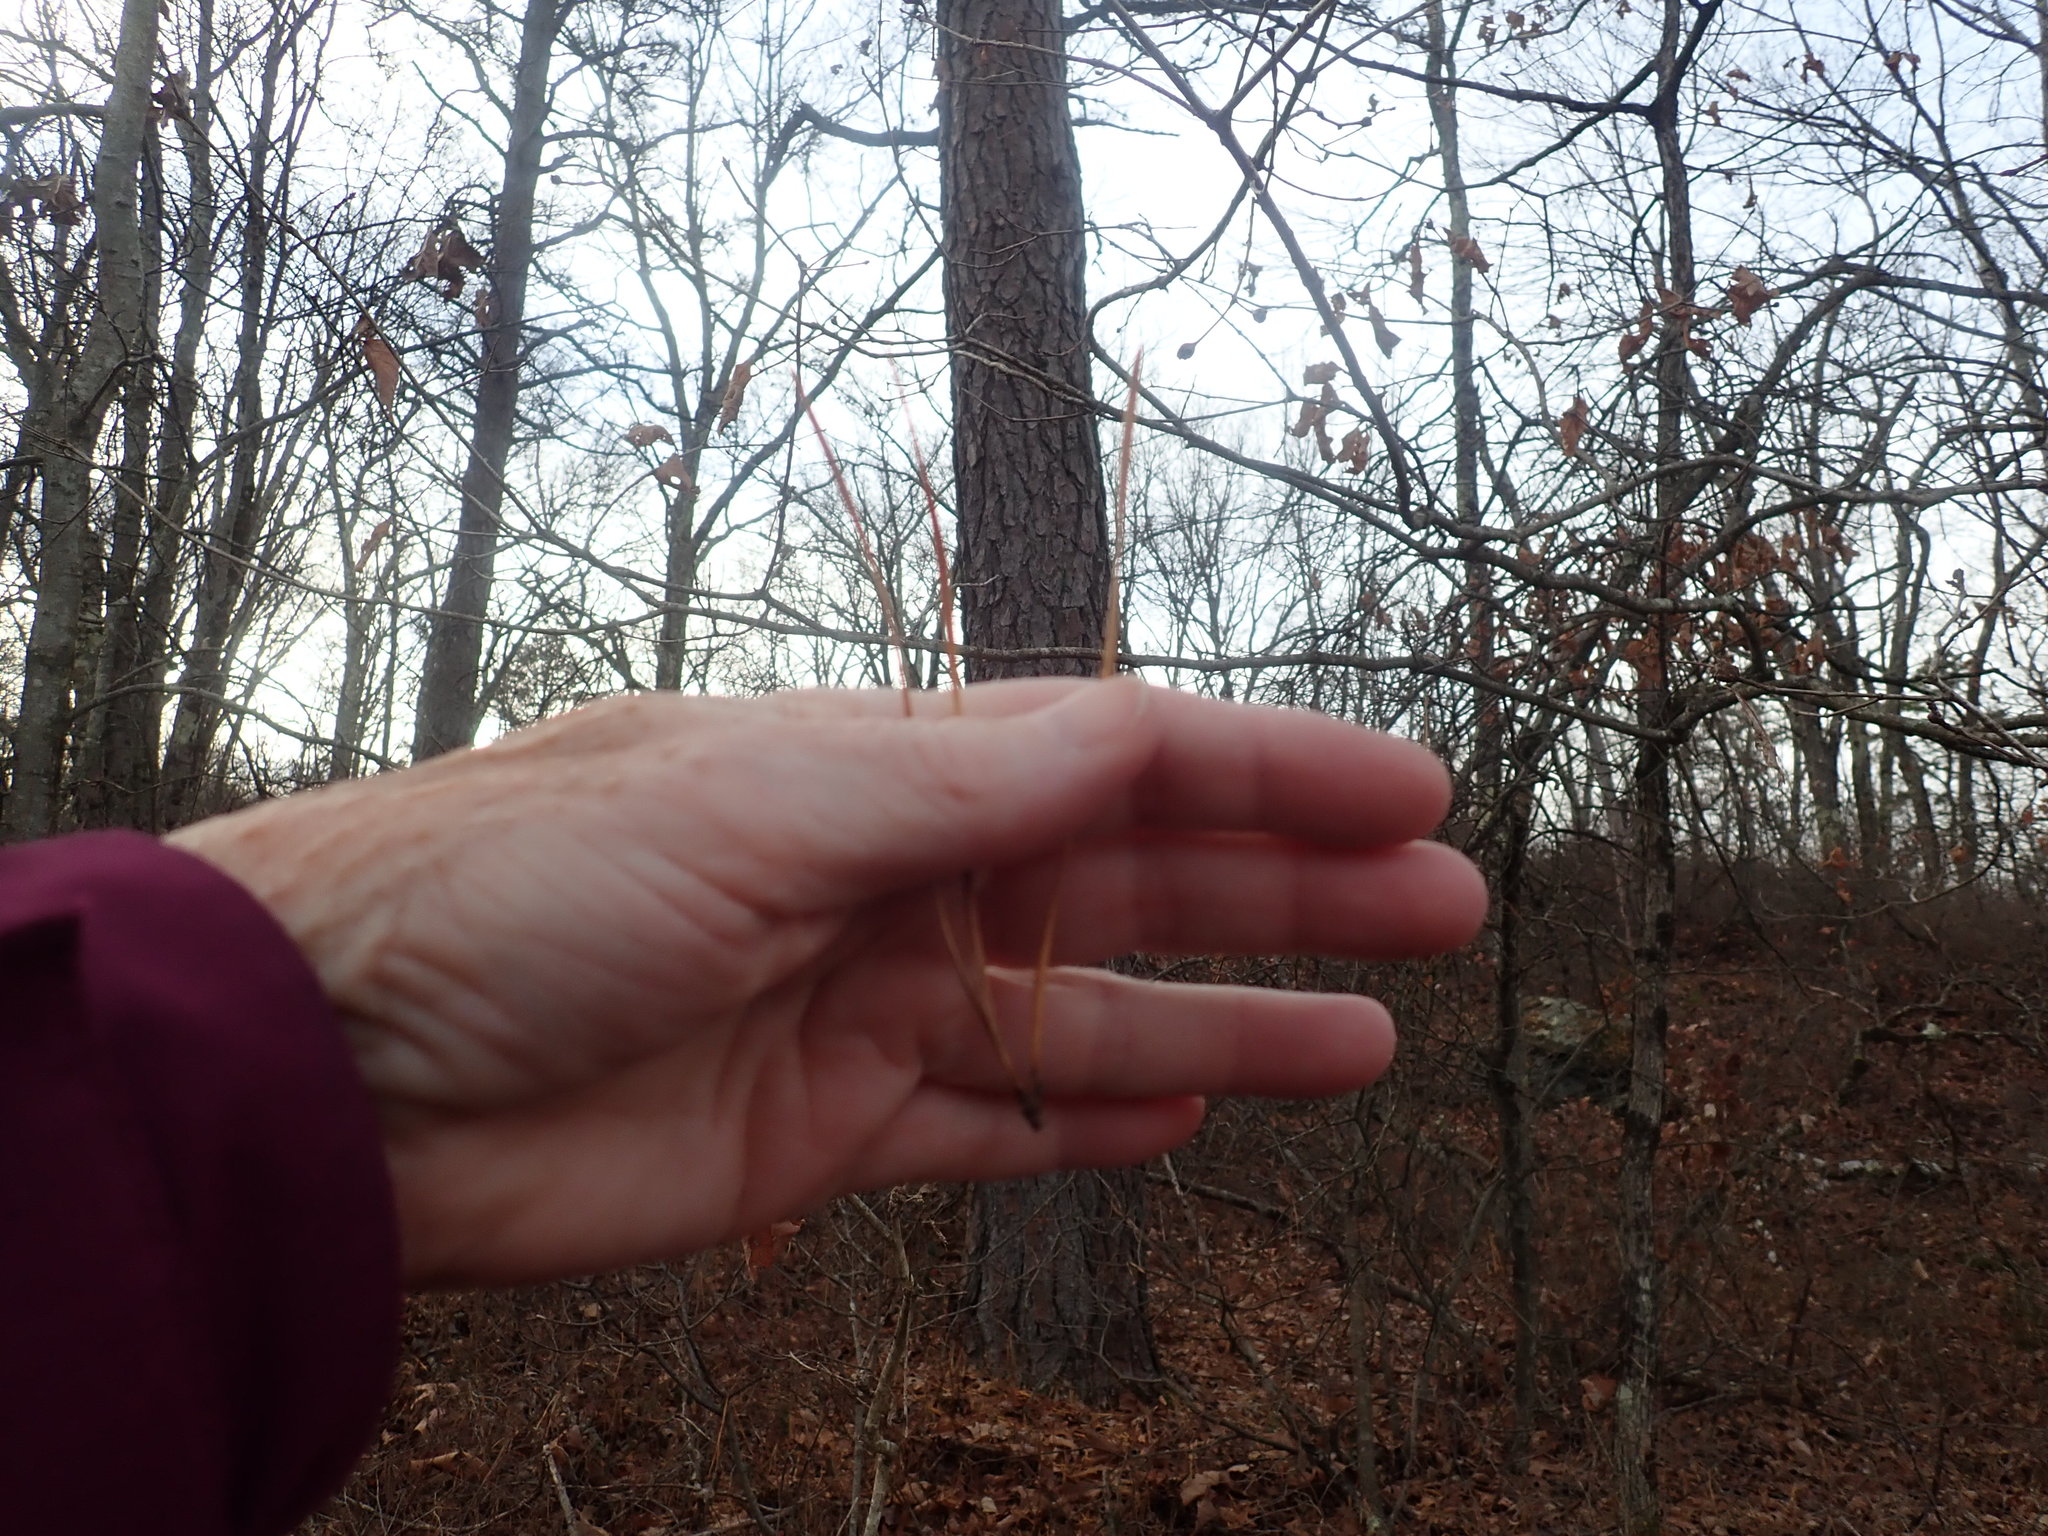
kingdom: Plantae
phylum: Tracheophyta
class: Pinopsida
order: Pinales
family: Pinaceae
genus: Pinus
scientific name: Pinus rigida
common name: Pitch pine
